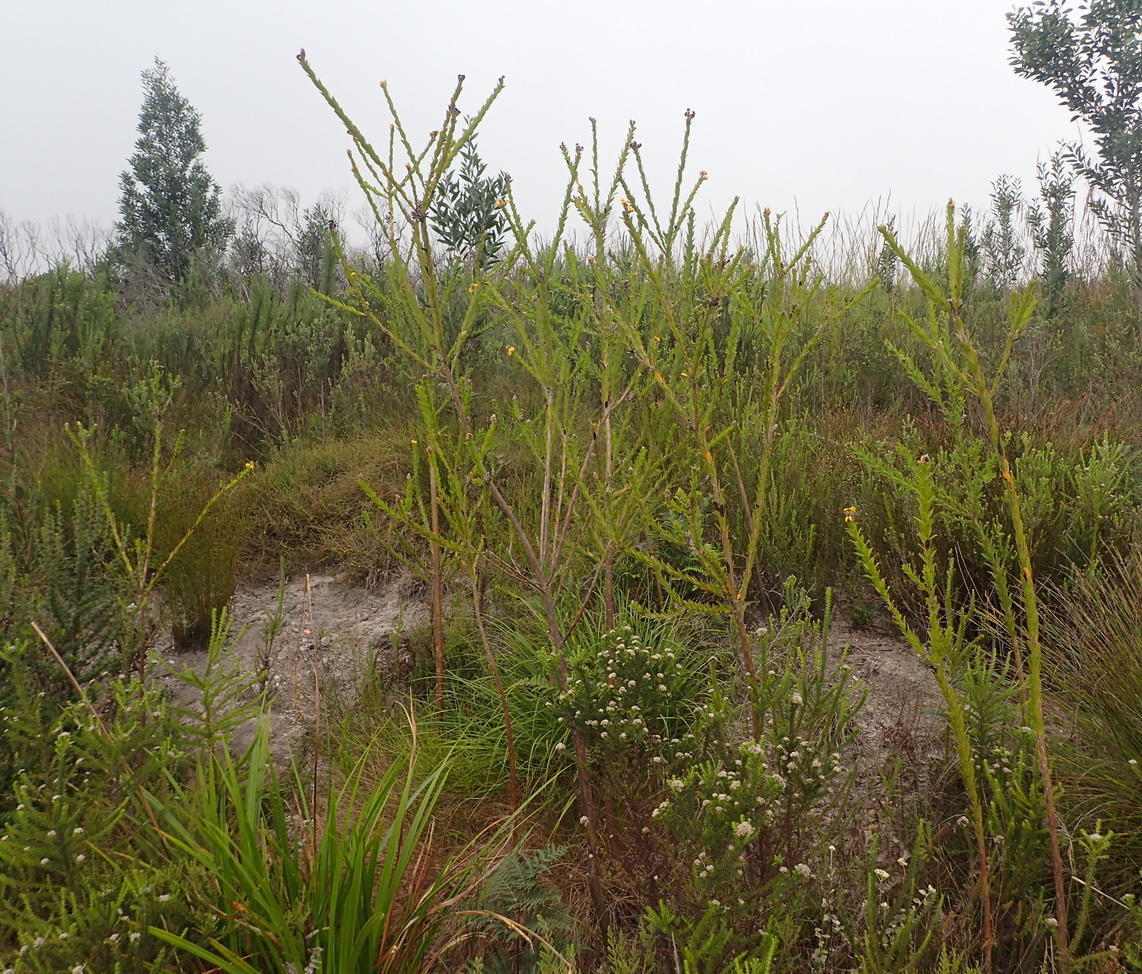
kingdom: Plantae
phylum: Tracheophyta
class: Magnoliopsida
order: Fabales
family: Fabaceae
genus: Liparia
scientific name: Liparia hirsuta
